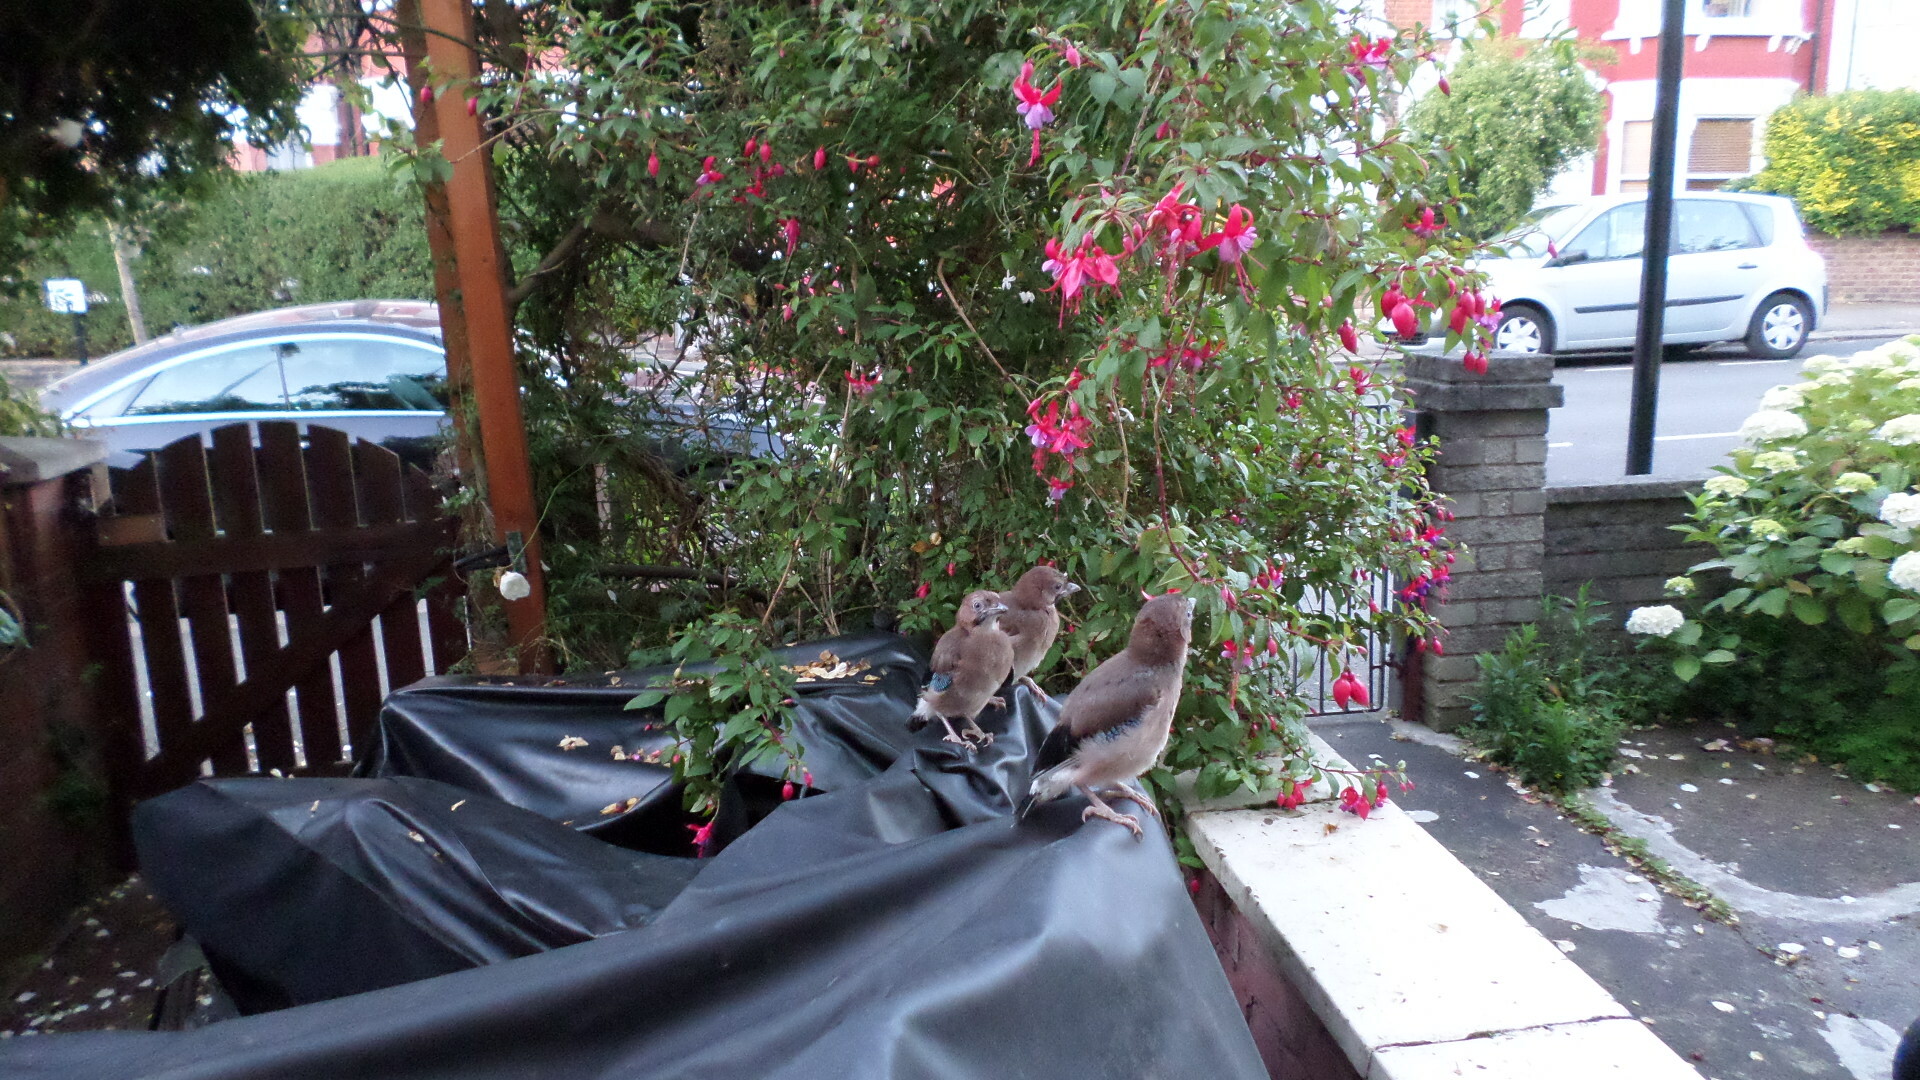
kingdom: Animalia
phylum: Chordata
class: Aves
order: Passeriformes
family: Corvidae
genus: Garrulus
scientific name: Garrulus glandarius
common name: Eurasian jay
